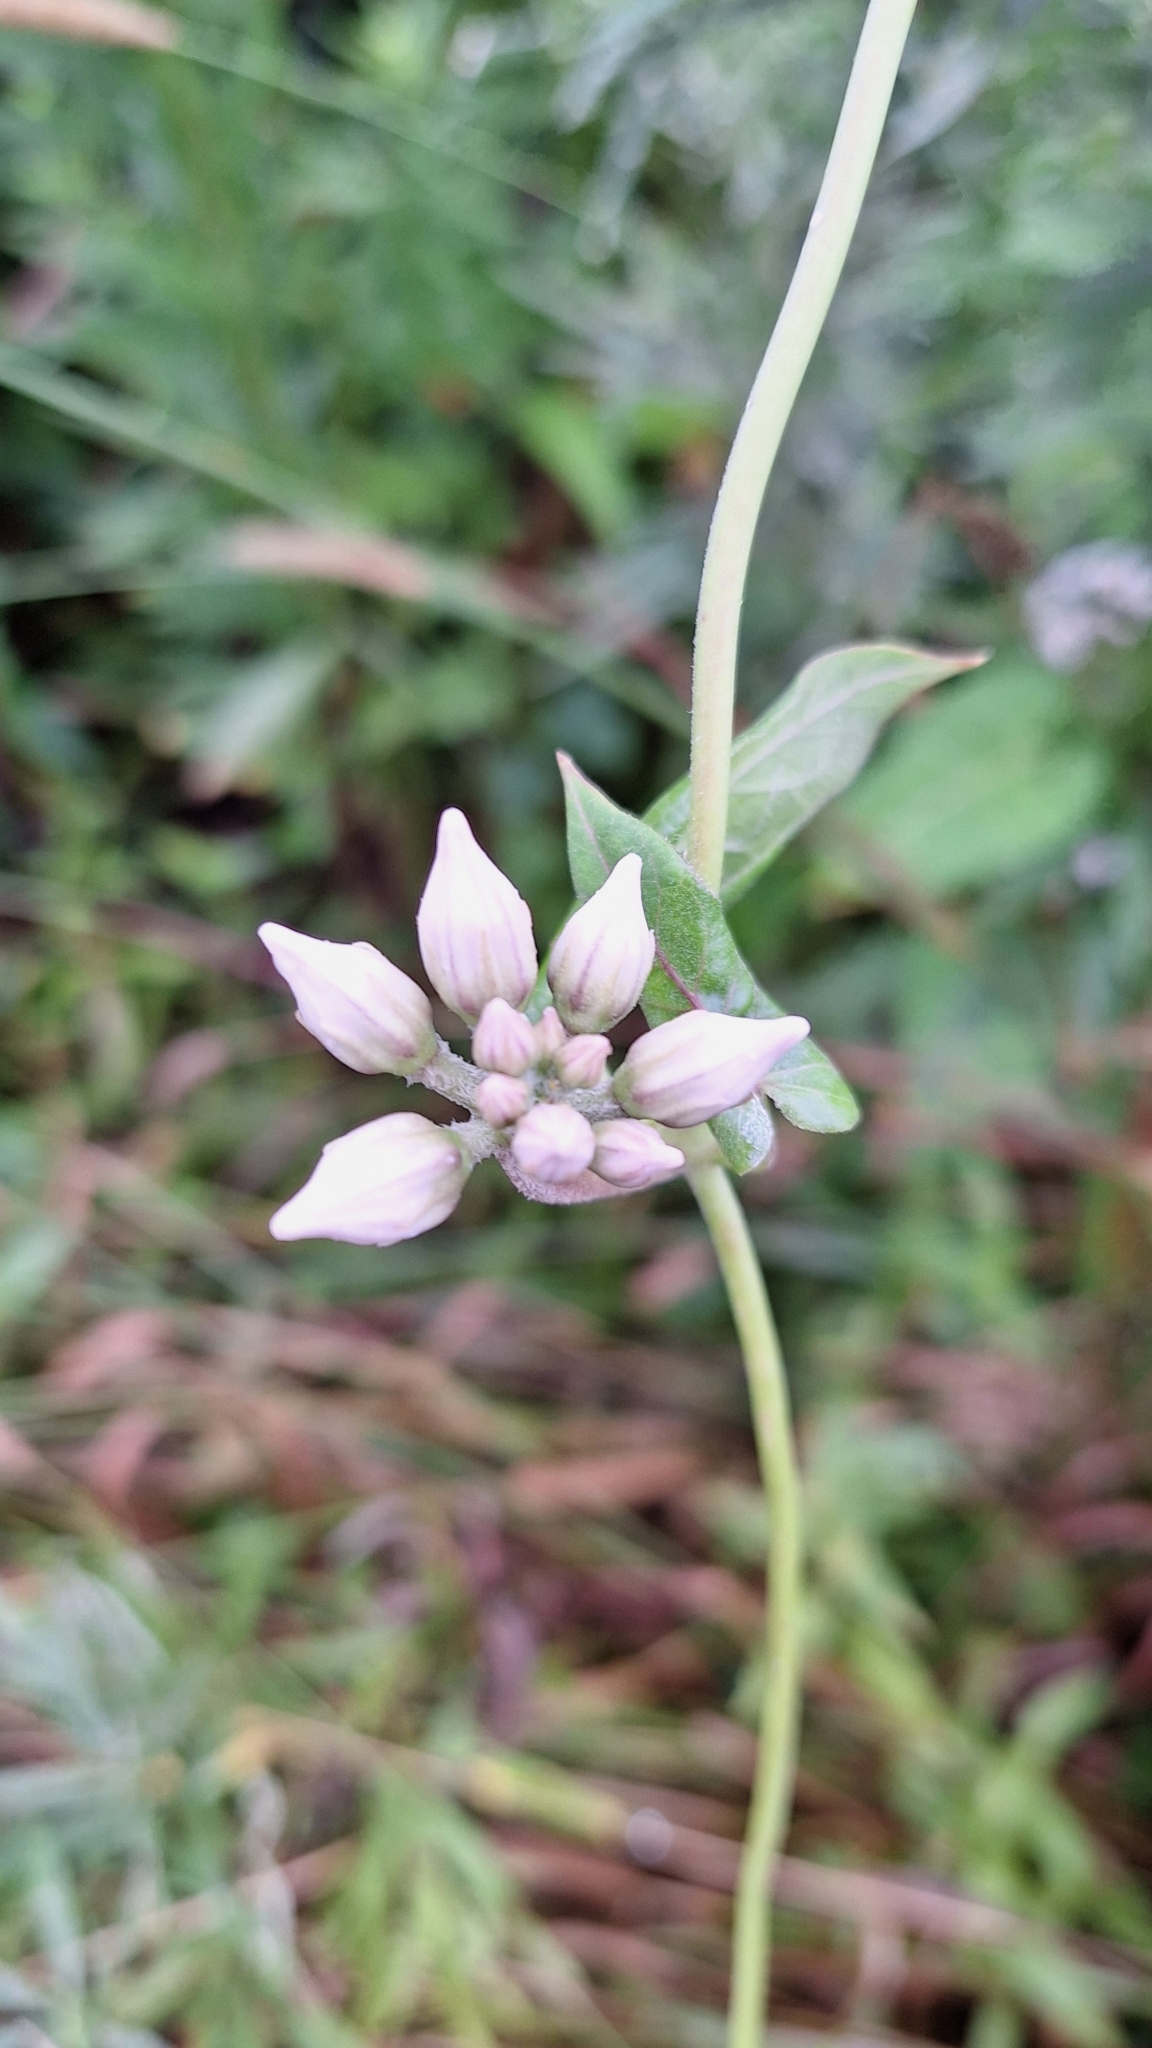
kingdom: Plantae
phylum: Tracheophyta
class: Magnoliopsida
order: Gentianales
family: Apocynaceae
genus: Cynanchum
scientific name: Cynanchum rostellatum
